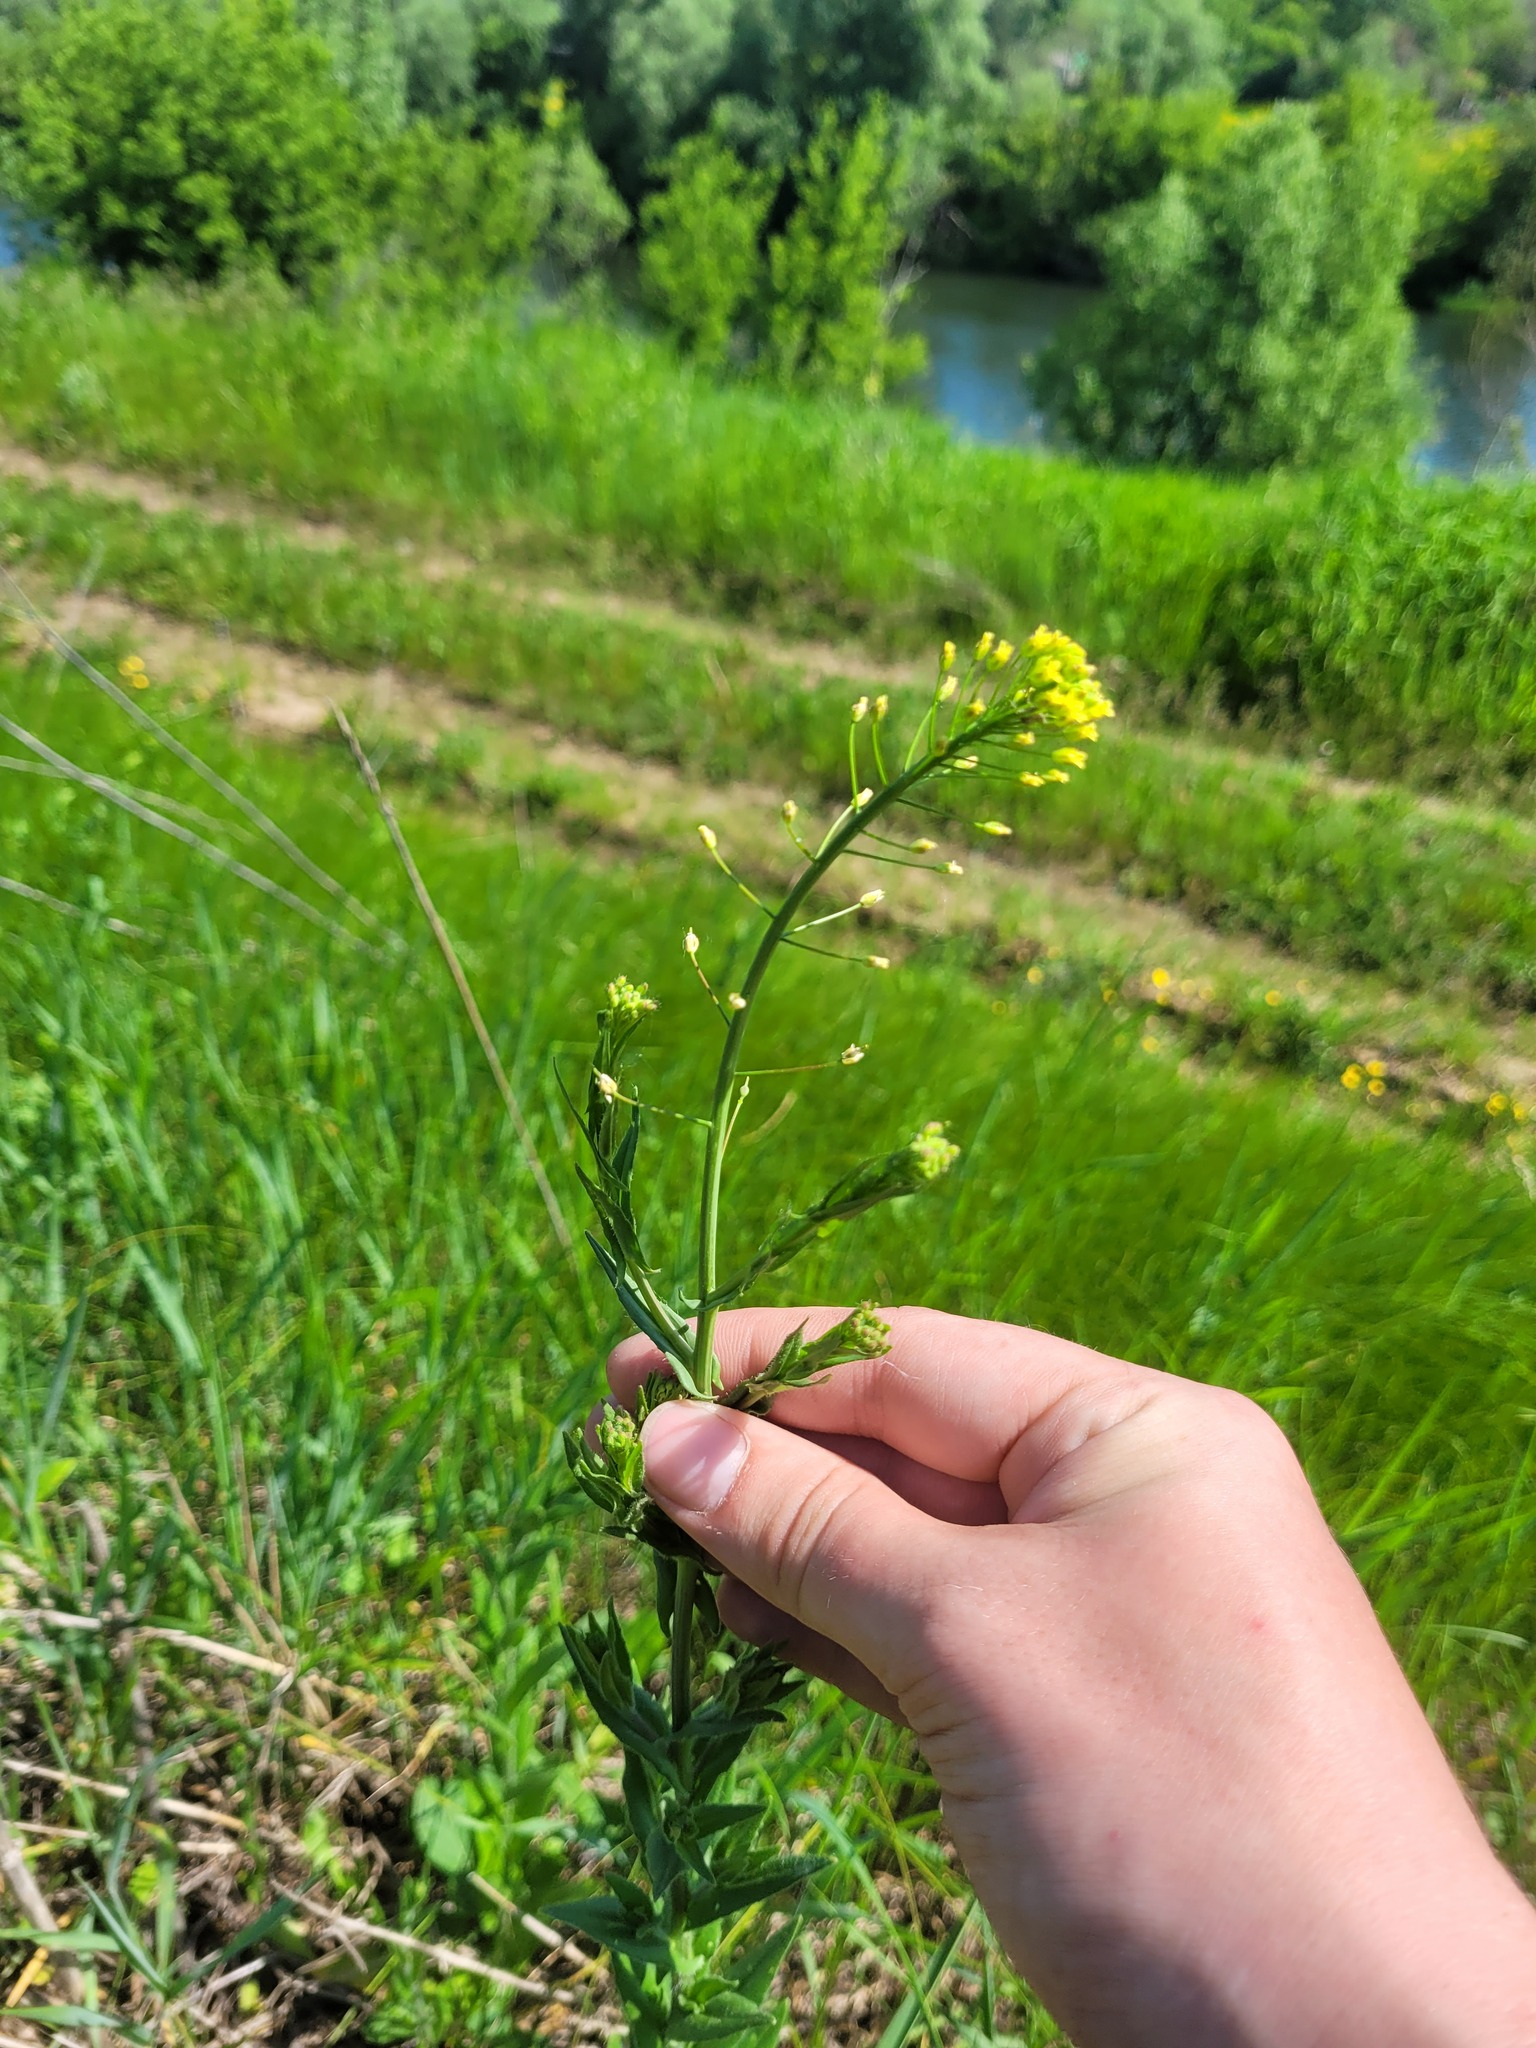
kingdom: Plantae
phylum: Tracheophyta
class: Magnoliopsida
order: Brassicales
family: Brassicaceae
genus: Camelina
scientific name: Camelina microcarpa
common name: Lesser gold-of-pleasure
